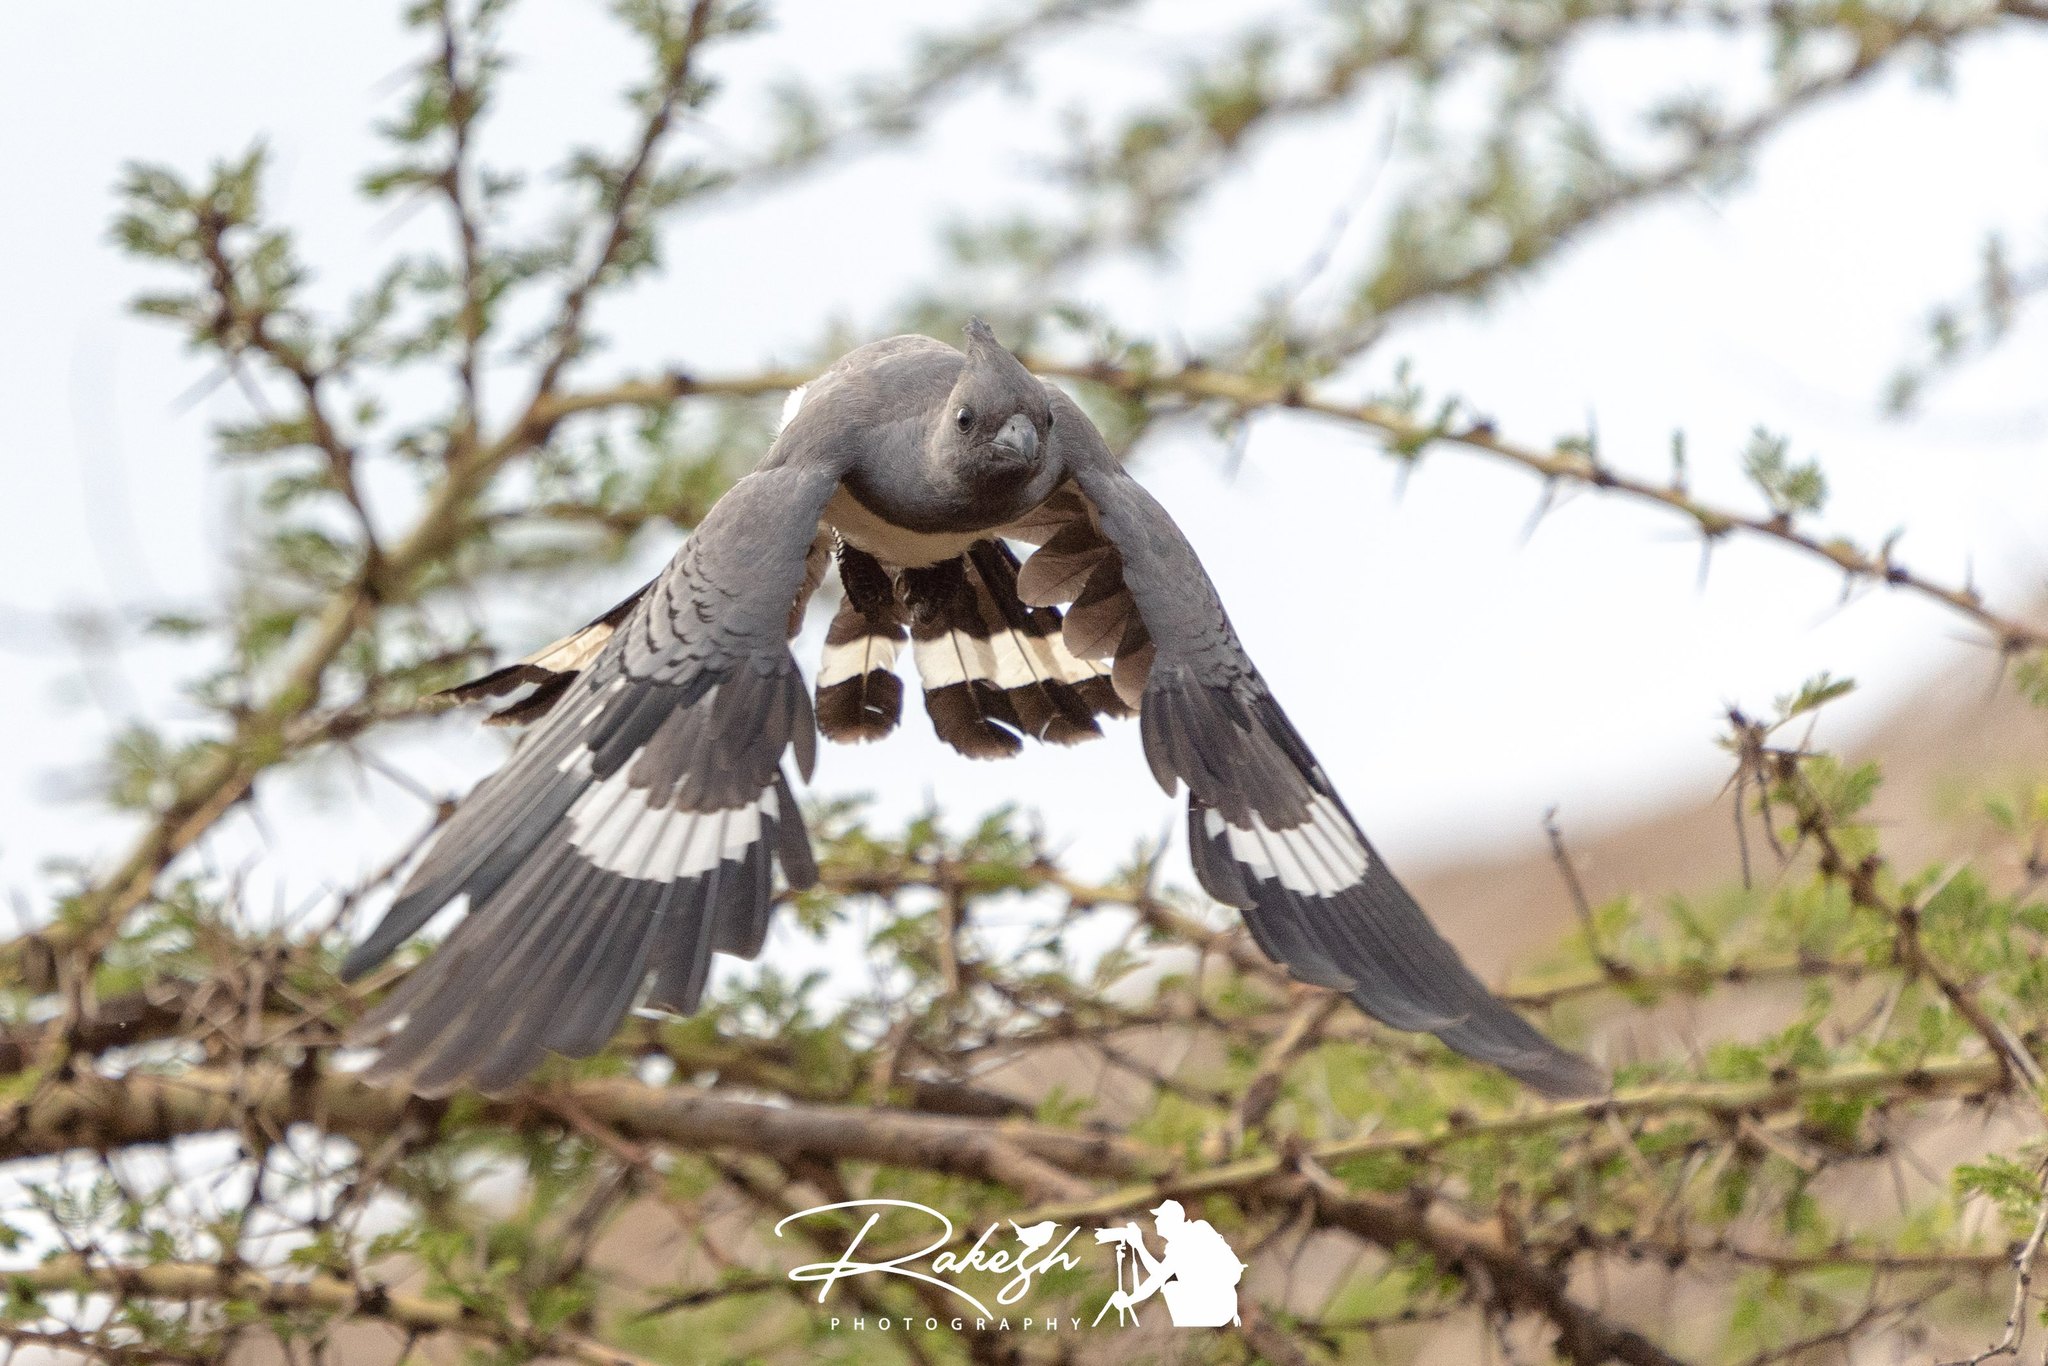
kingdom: Animalia
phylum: Chordata
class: Aves
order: Musophagiformes
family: Musophagidae
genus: Corythaixoides
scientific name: Corythaixoides leucogaster
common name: White-bellied go-away-bird
